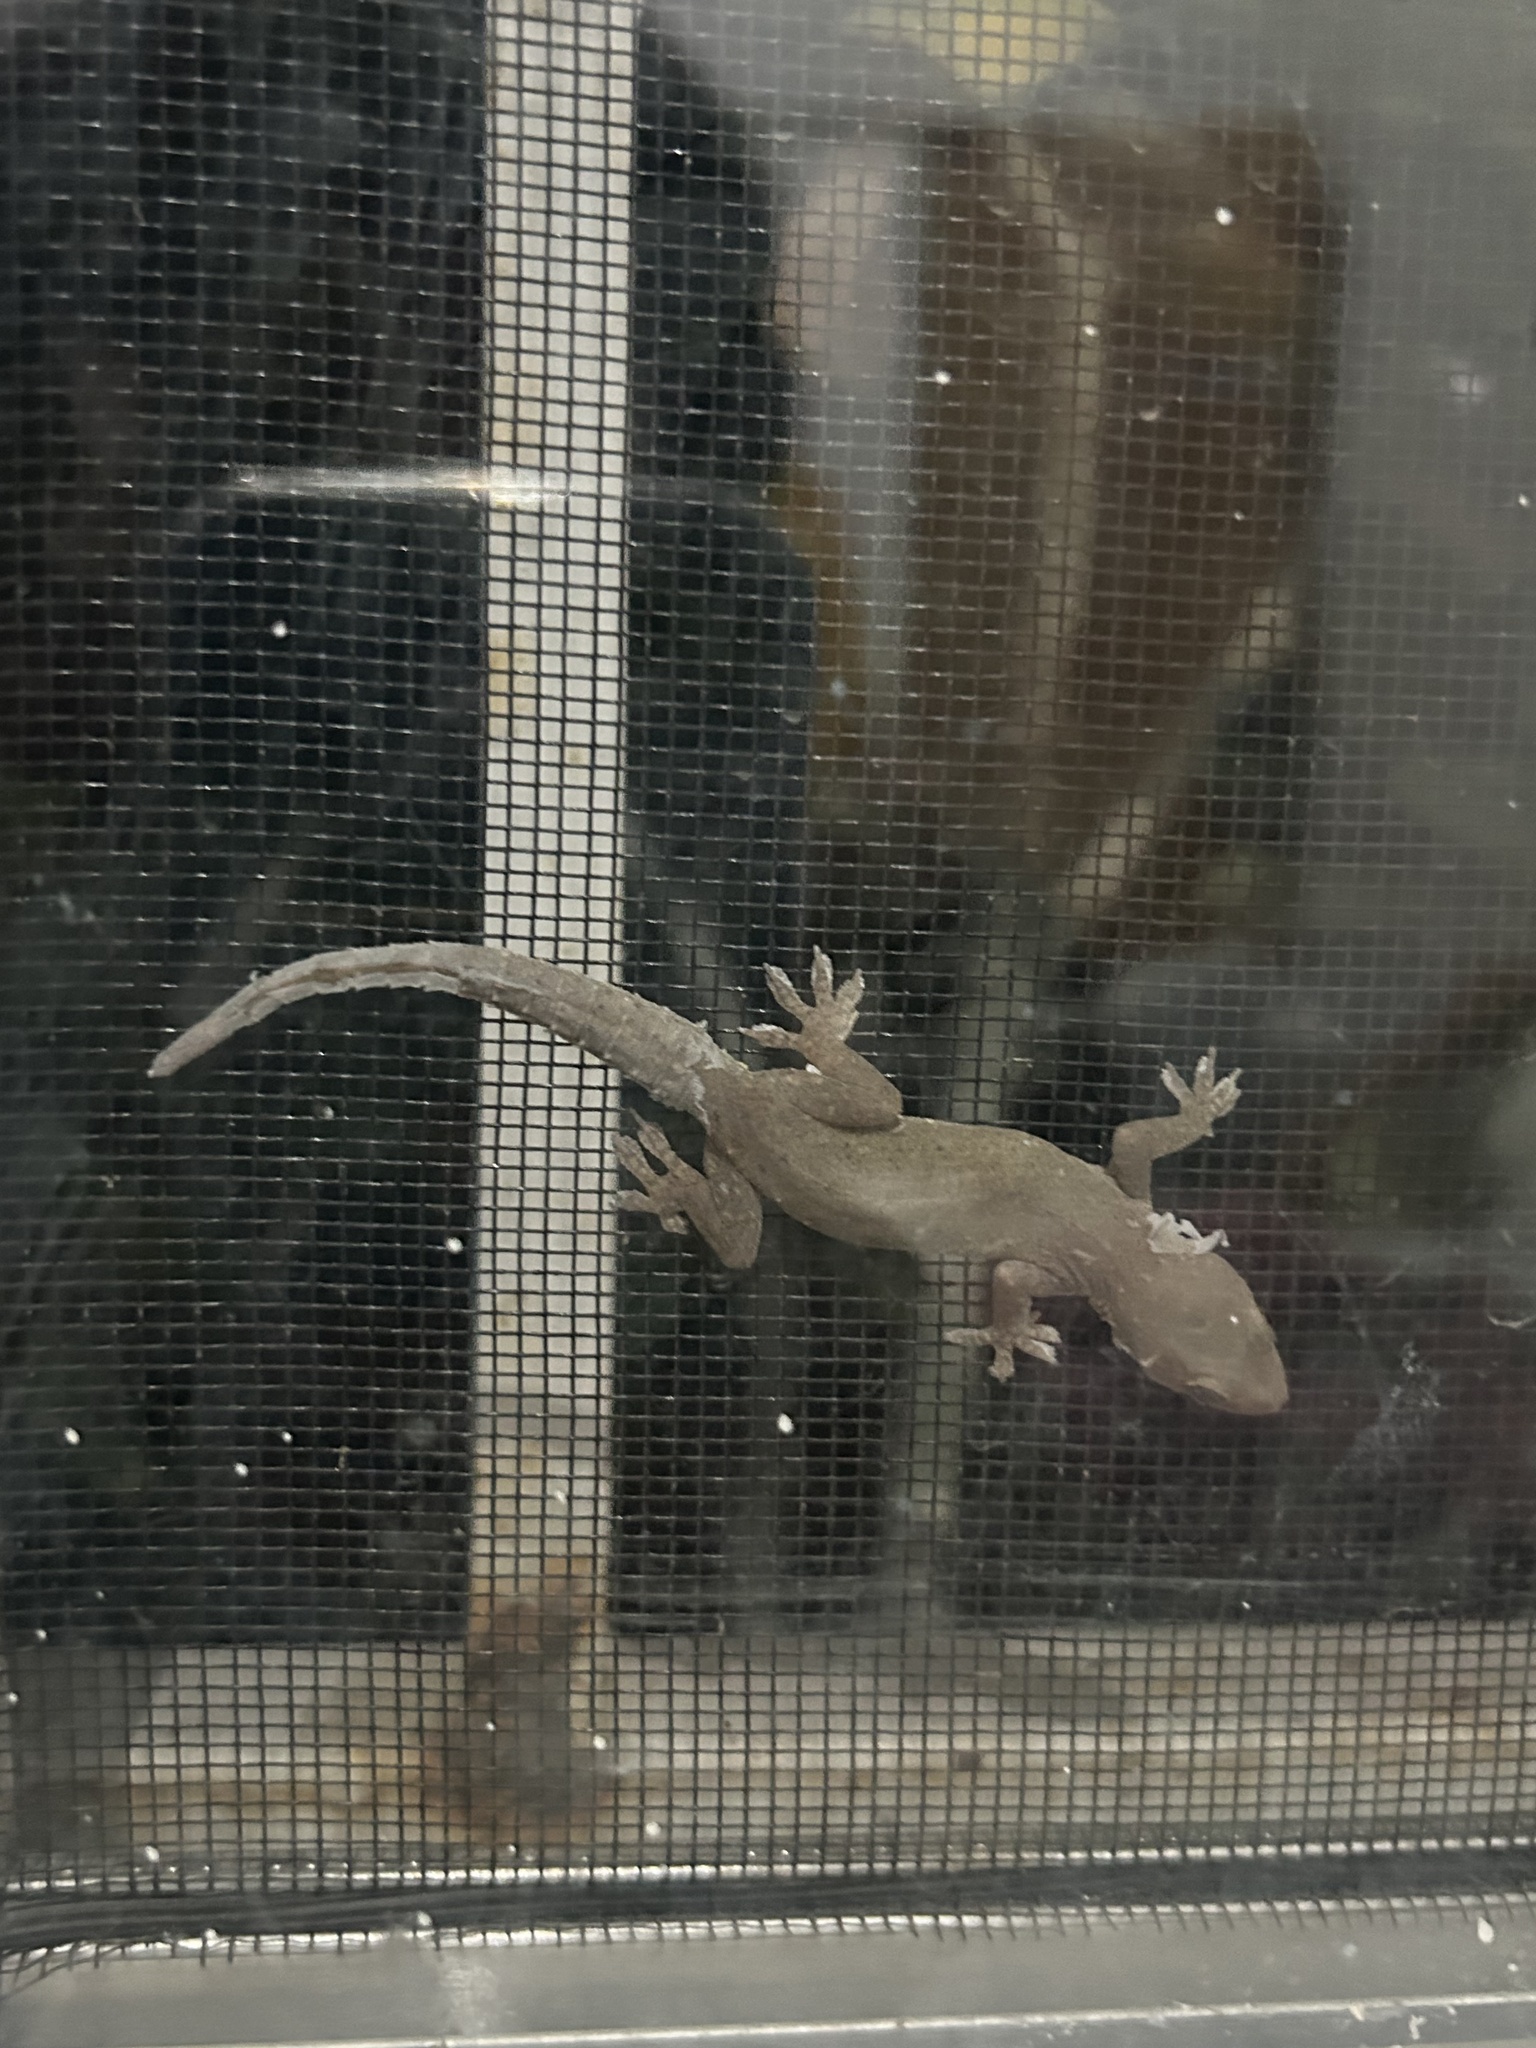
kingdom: Animalia
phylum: Chordata
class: Squamata
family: Gekkonidae
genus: Hemidactylus
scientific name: Hemidactylus frenatus
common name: Common house gecko
